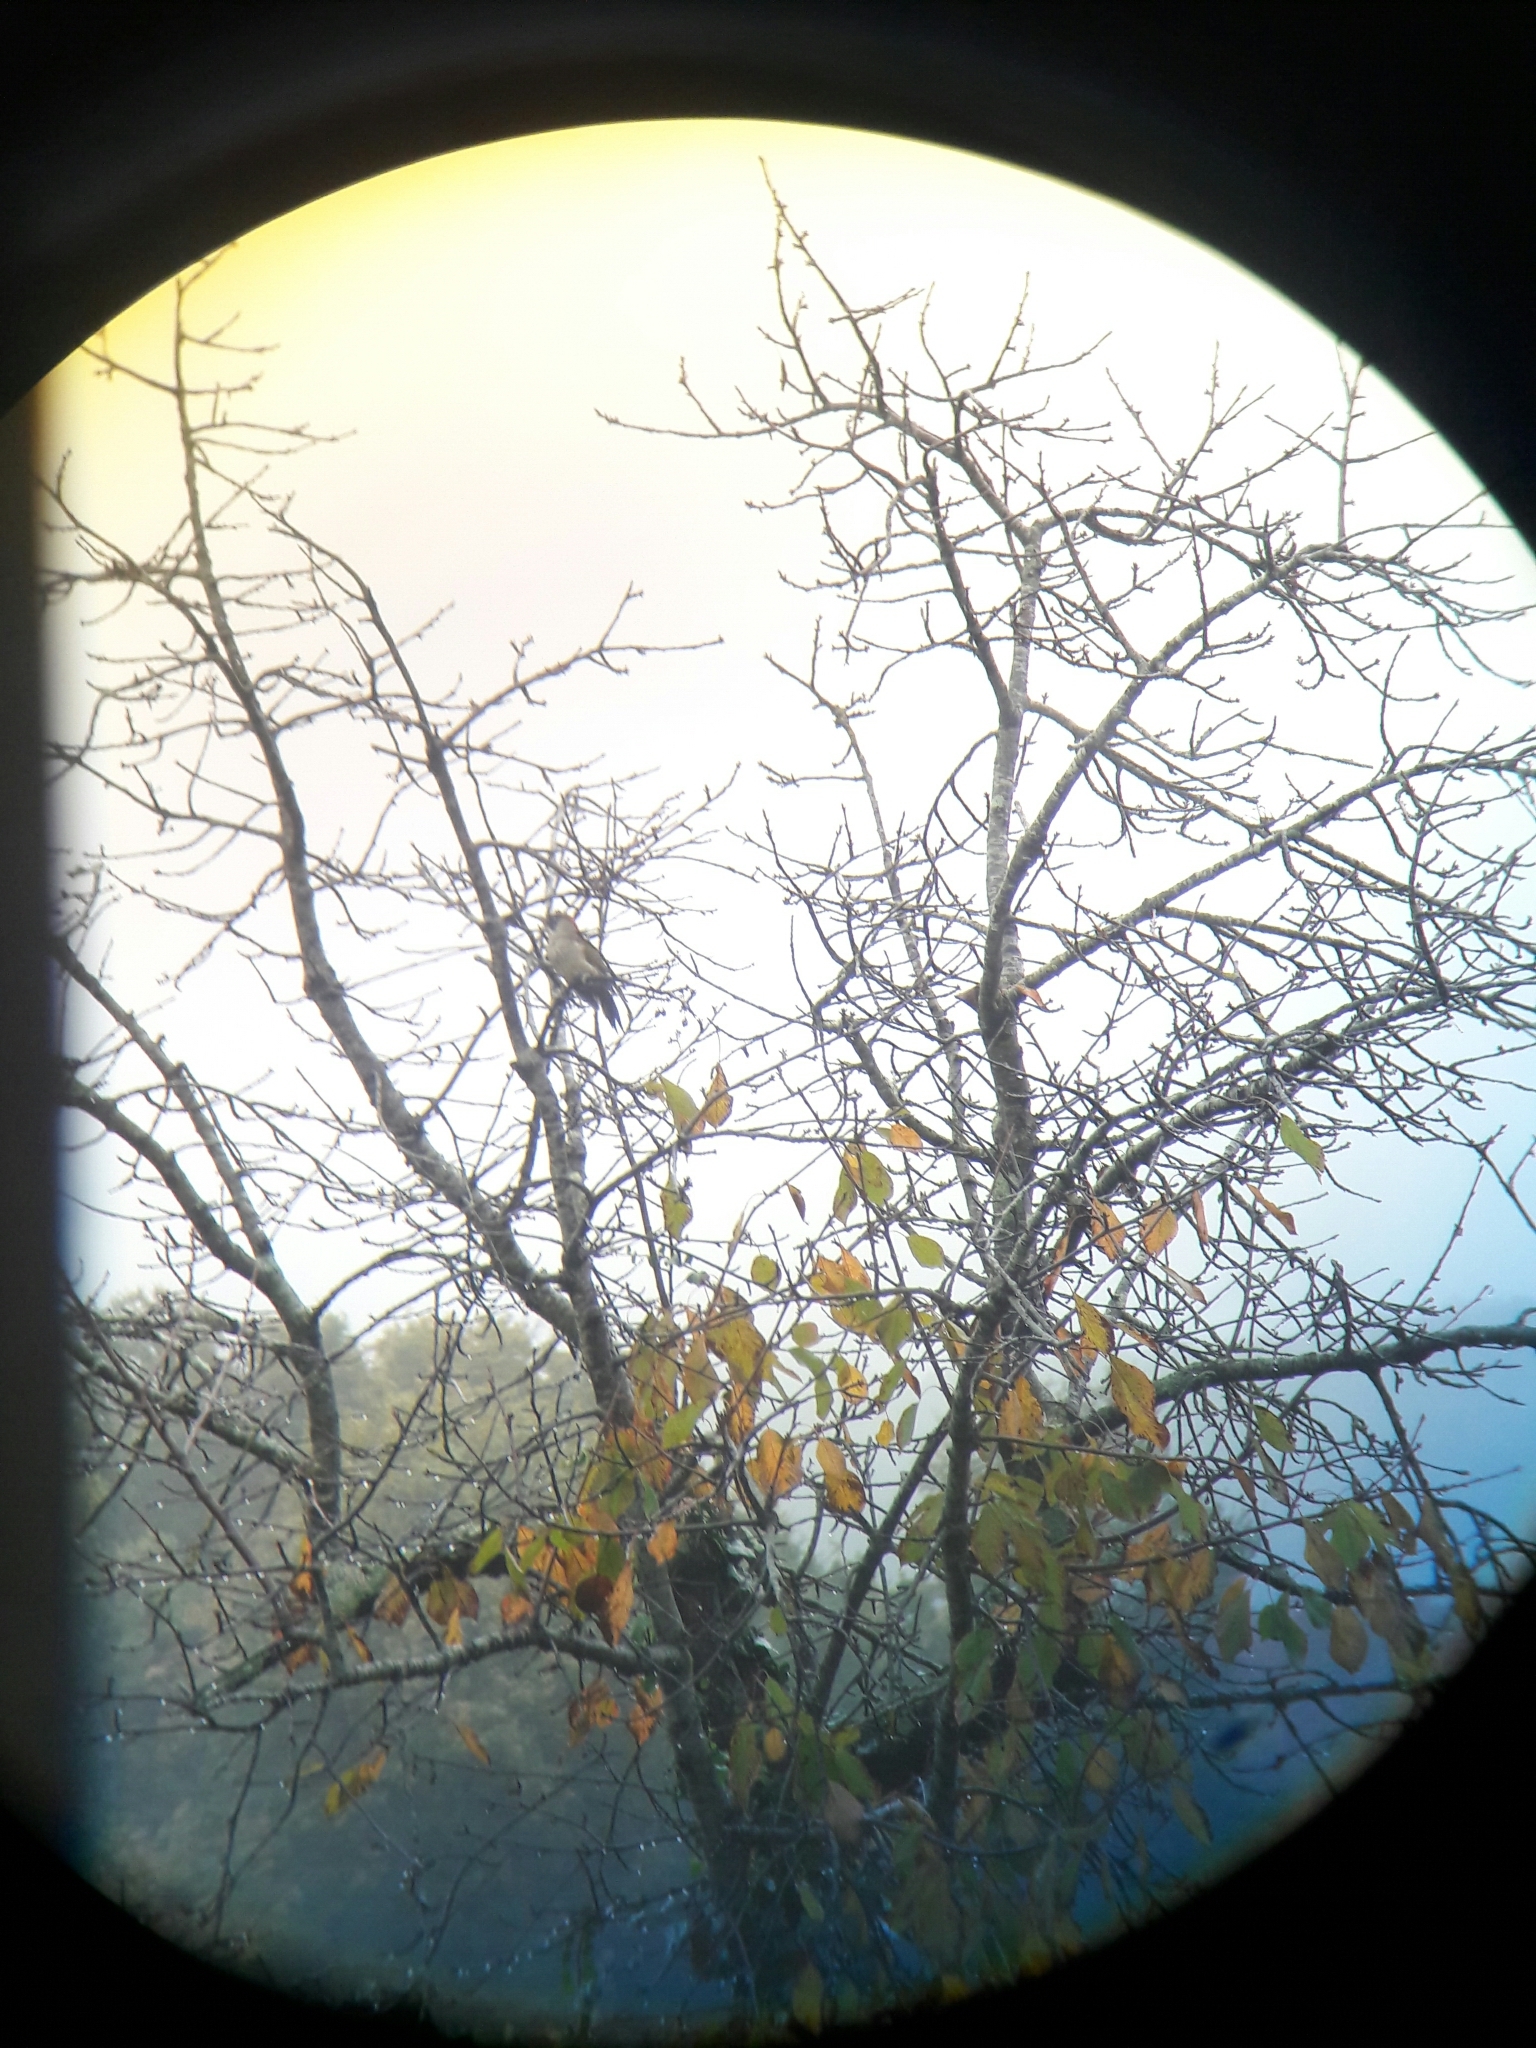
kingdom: Animalia
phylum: Chordata
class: Aves
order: Piciformes
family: Picidae
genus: Picus
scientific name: Picus viridis
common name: European green woodpecker
